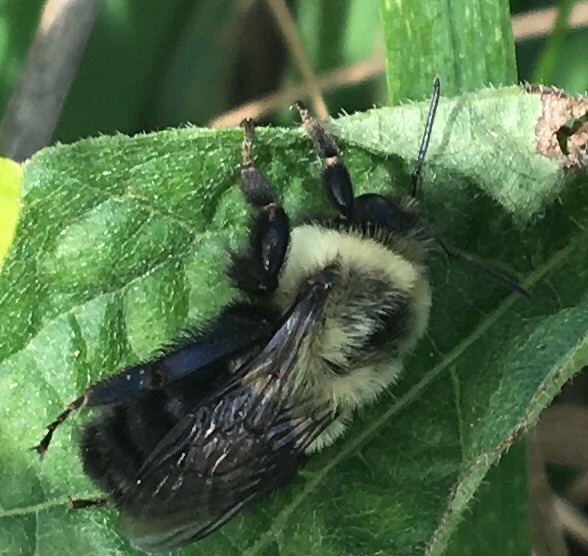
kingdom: Animalia
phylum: Arthropoda
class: Insecta
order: Hymenoptera
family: Apidae
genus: Bombus
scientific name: Bombus impatiens
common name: Common eastern bumble bee
